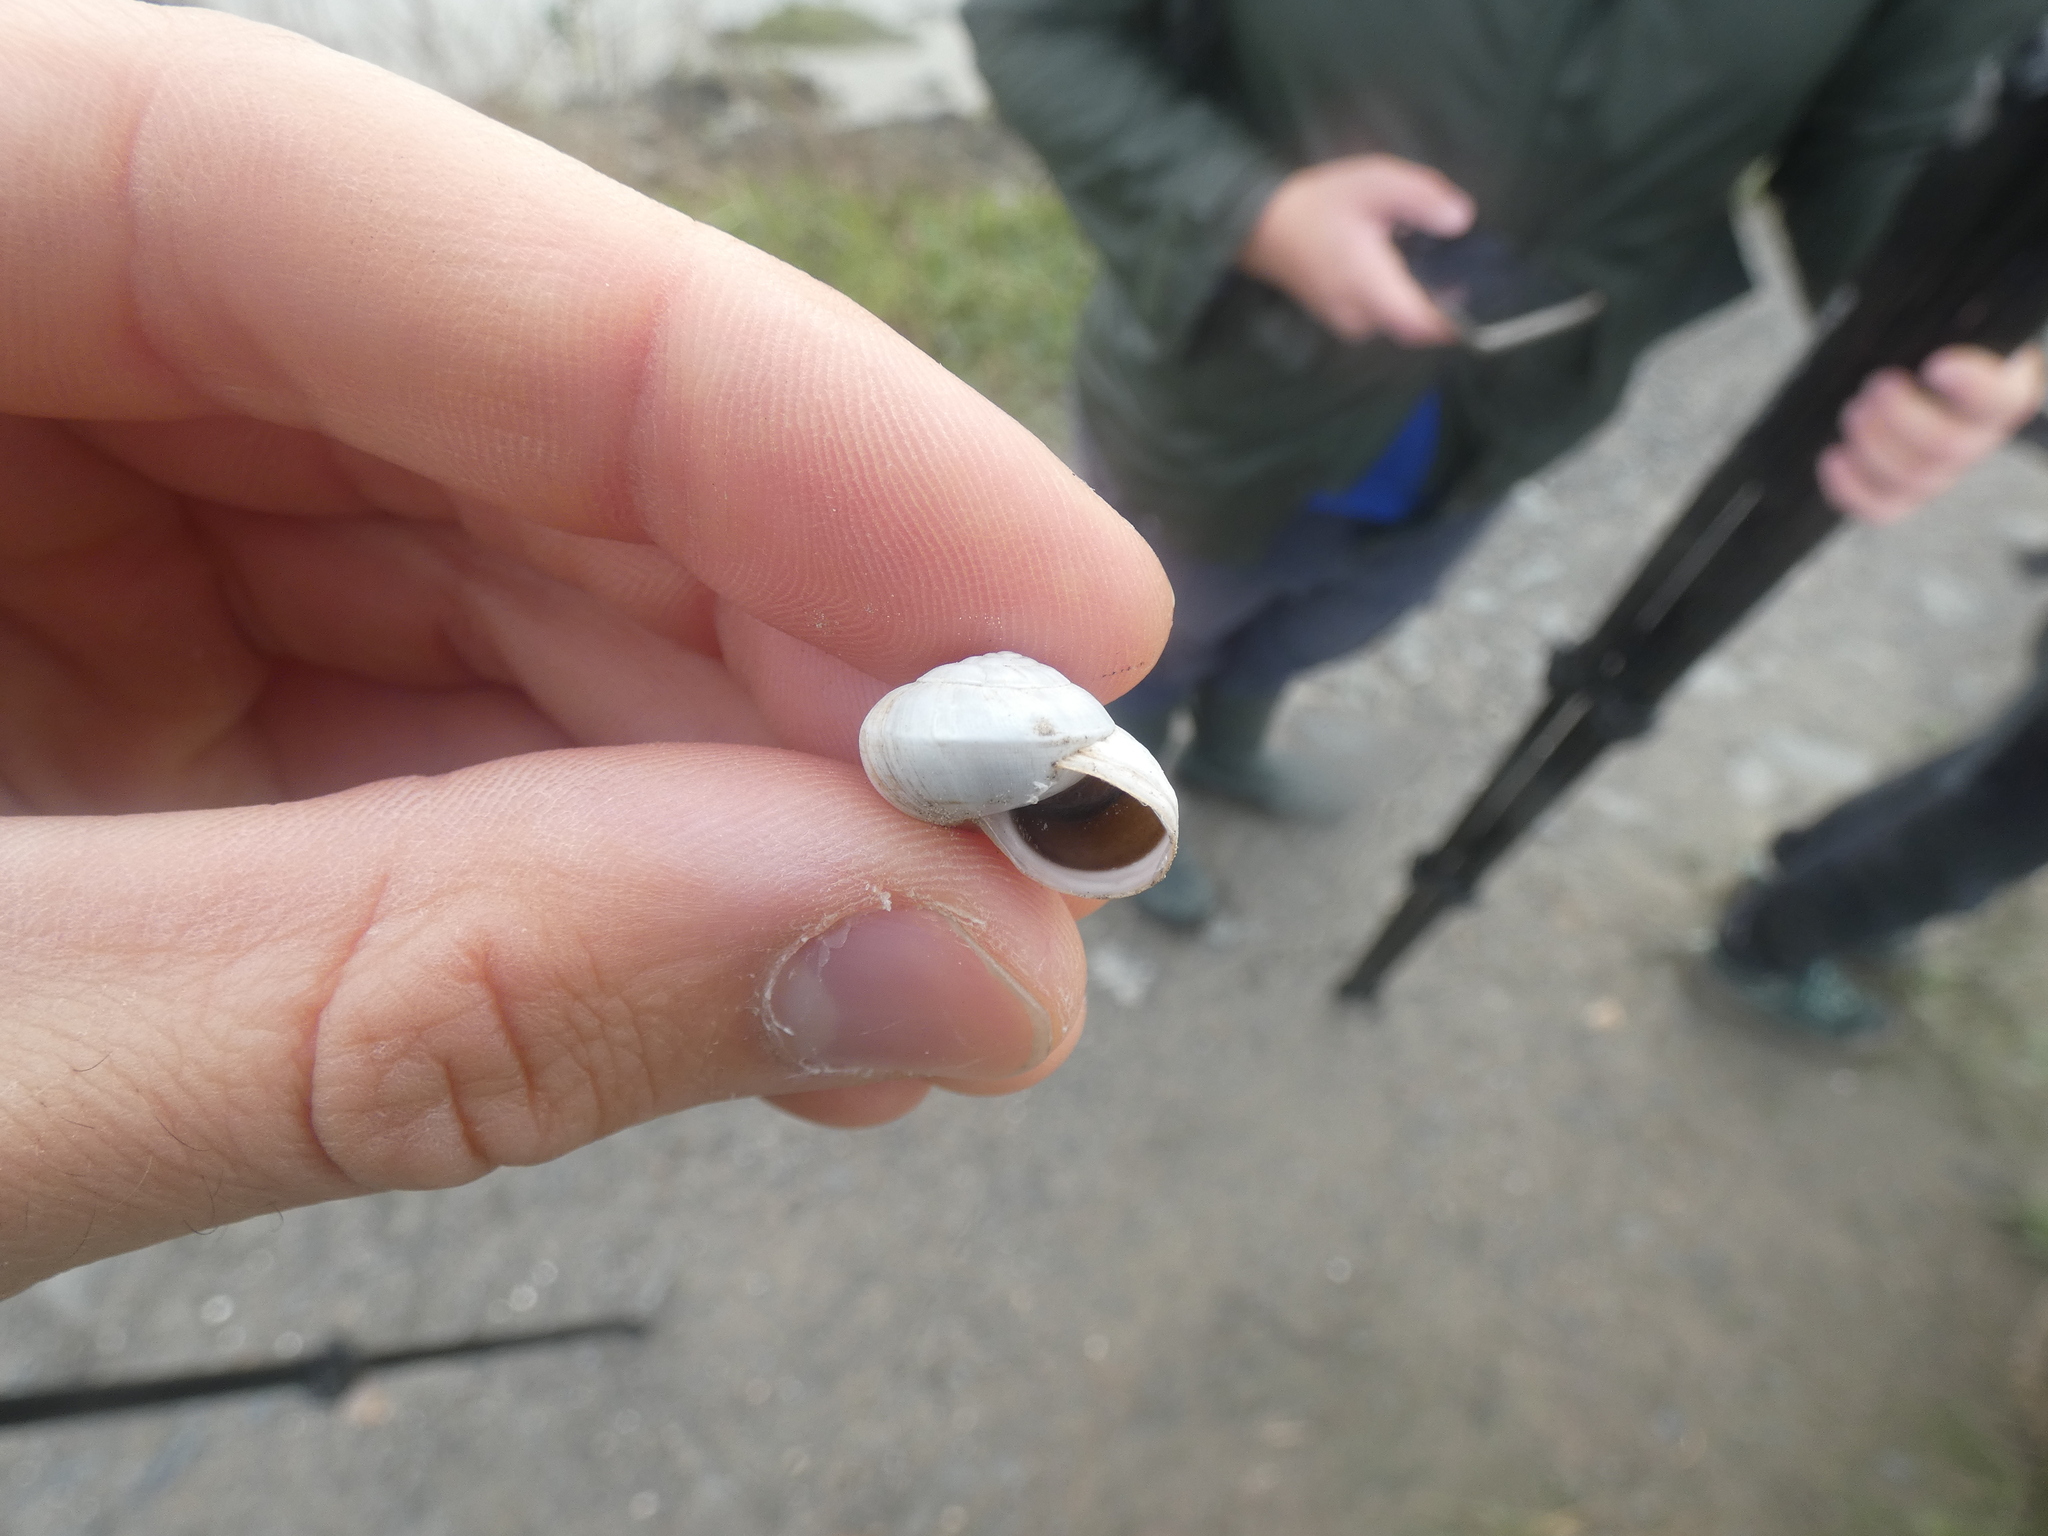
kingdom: Animalia
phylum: Mollusca
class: Gastropoda
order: Stylommatophora
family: Helicidae
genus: Theba
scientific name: Theba pisana
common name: White snail
